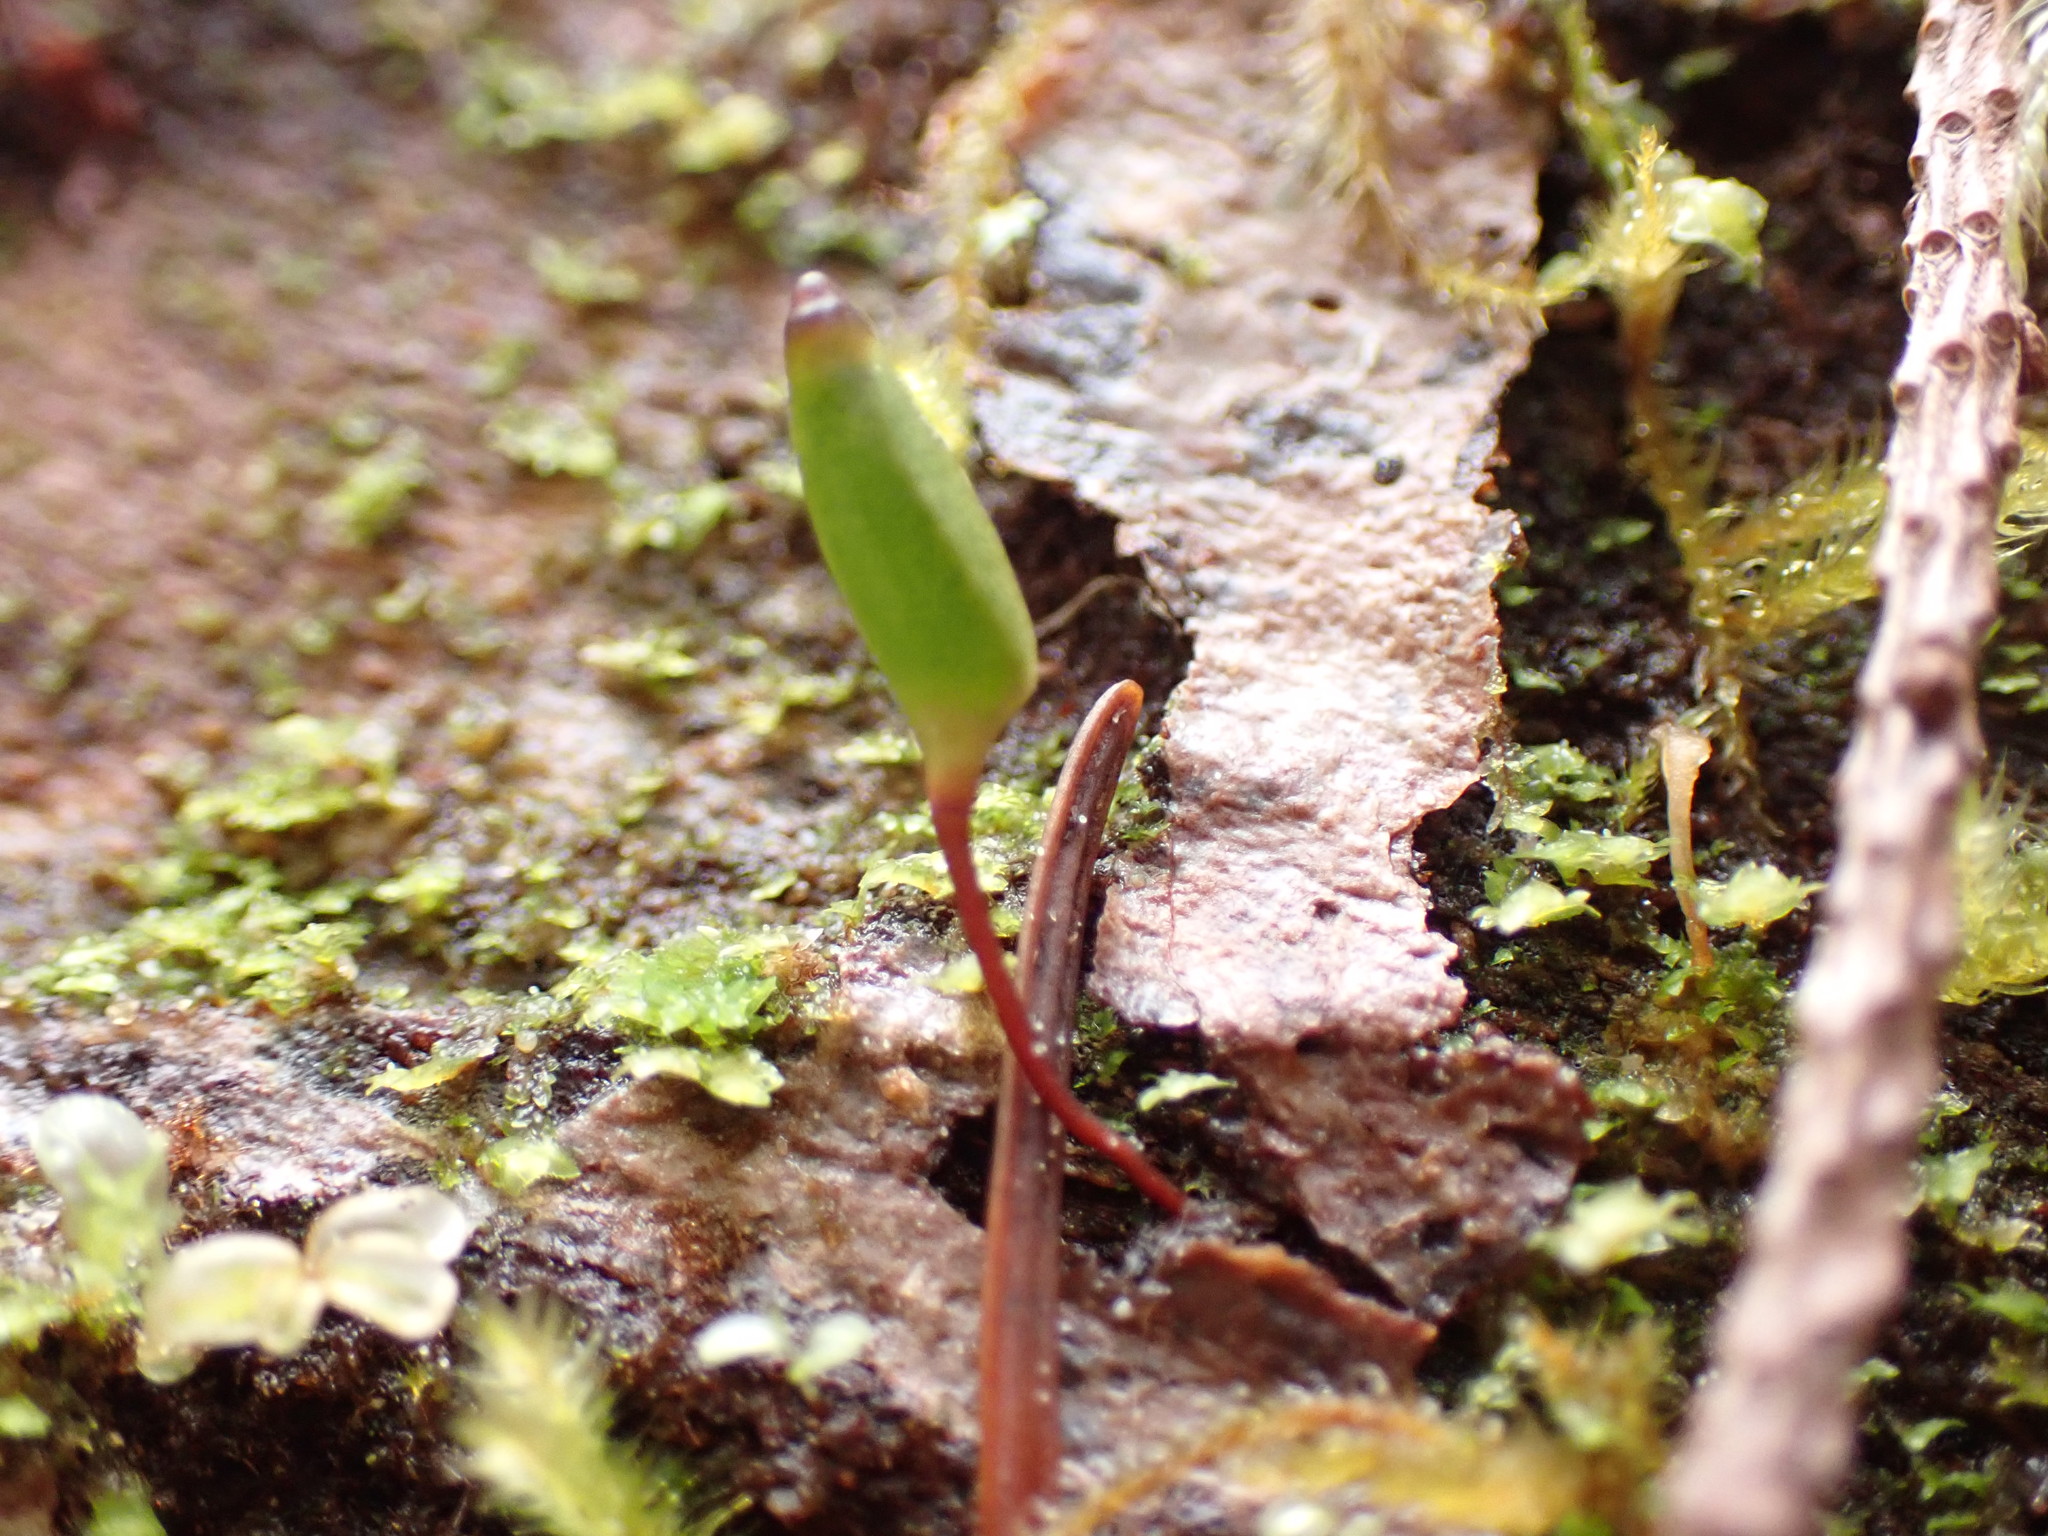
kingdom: Plantae
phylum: Bryophyta
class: Bryopsida
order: Buxbaumiales
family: Buxbaumiaceae
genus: Buxbaumia
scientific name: Buxbaumia piperi
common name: Piper's shield moss
